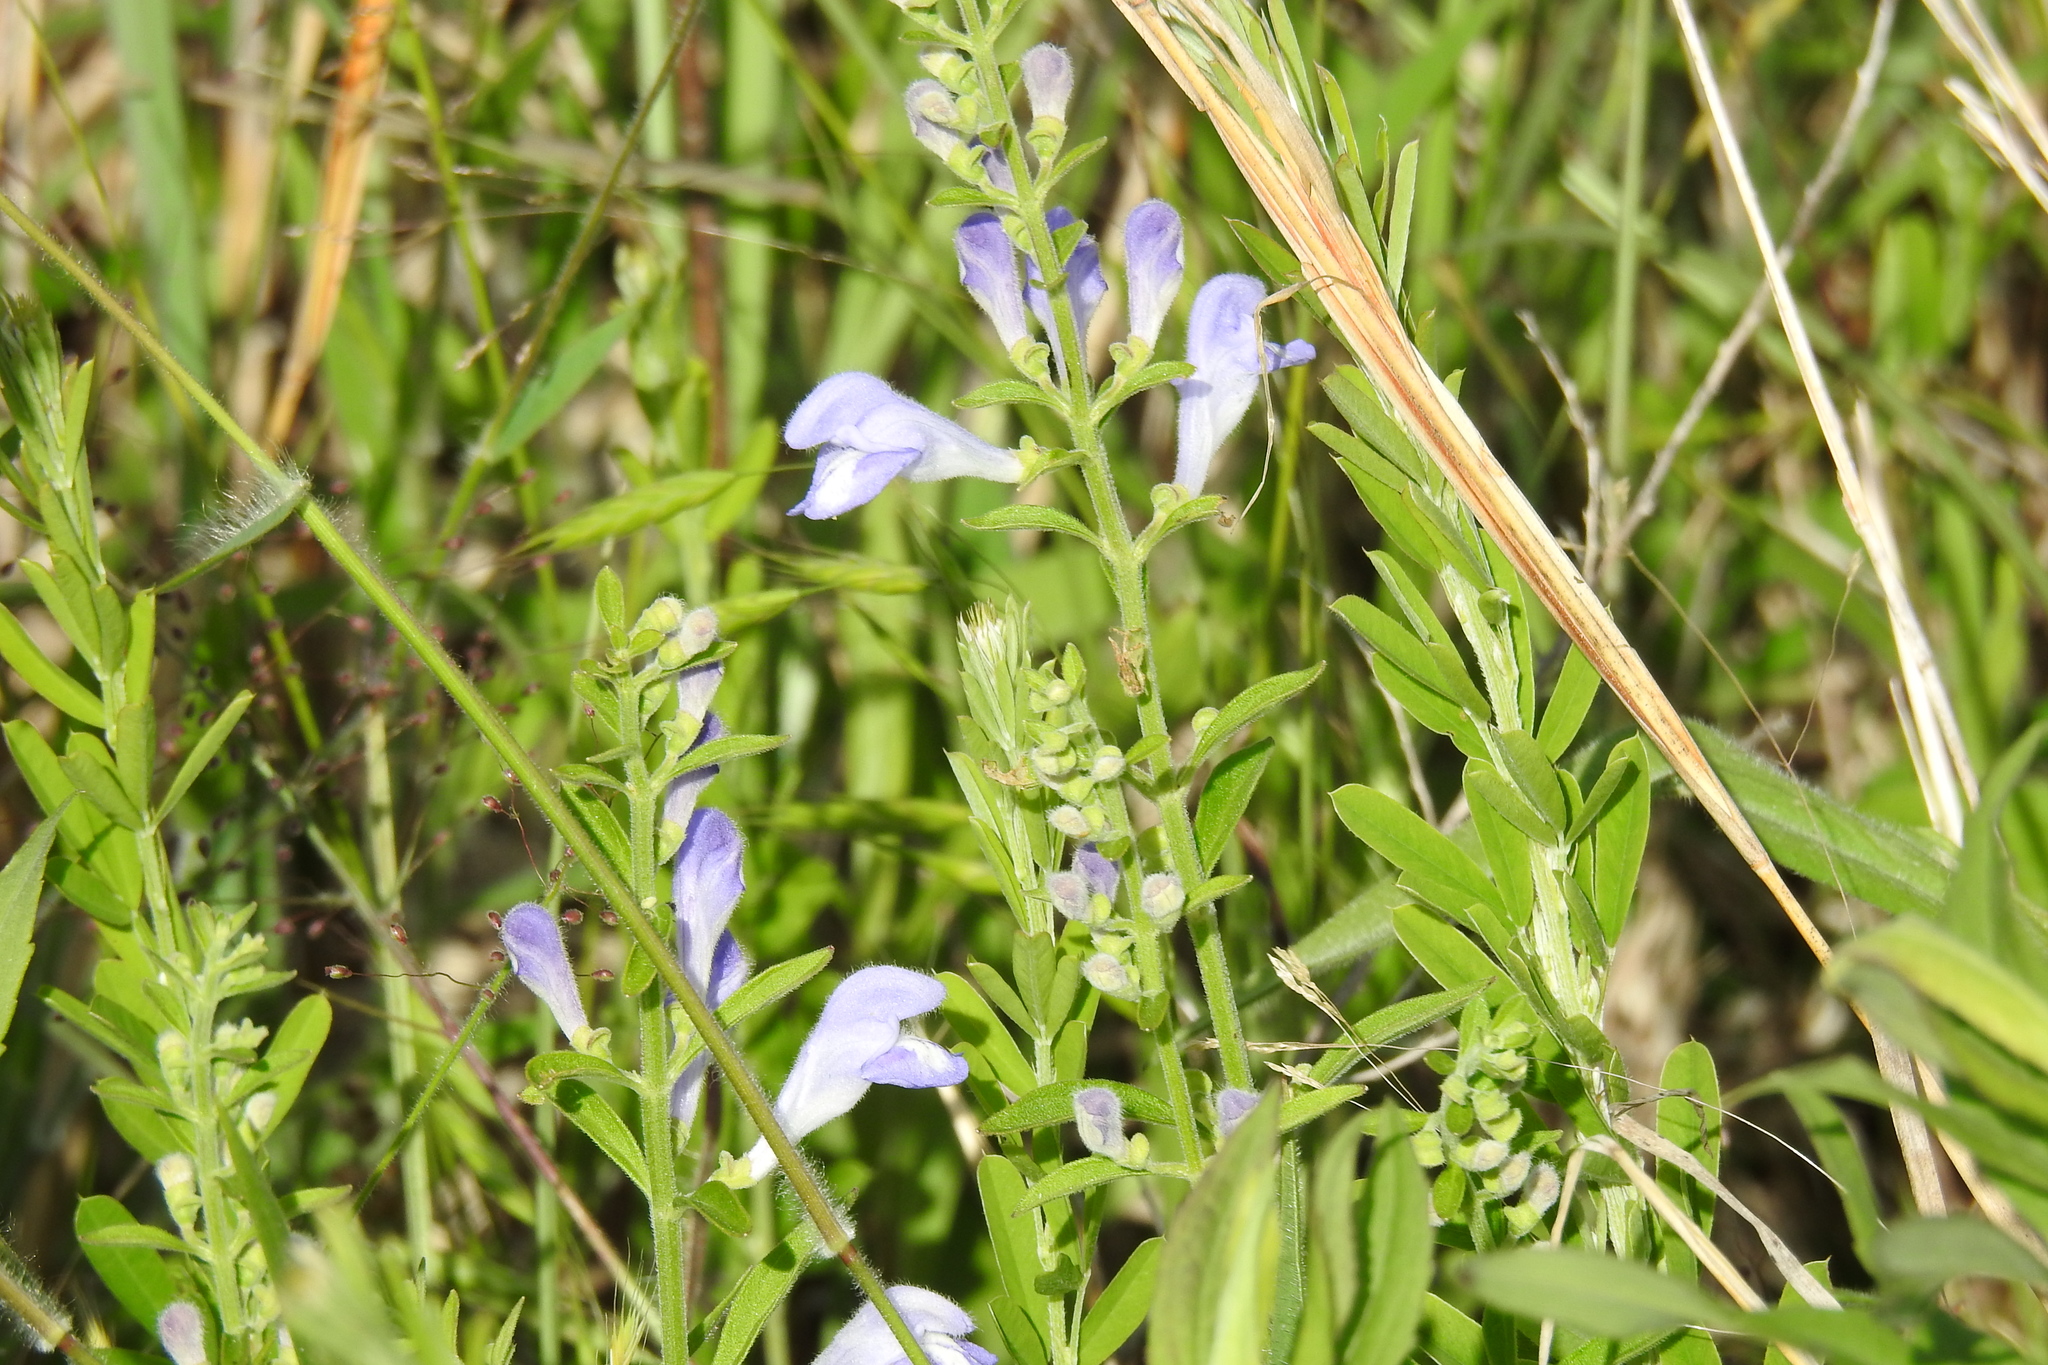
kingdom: Plantae
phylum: Tracheophyta
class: Magnoliopsida
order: Lamiales
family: Lamiaceae
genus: Scutellaria
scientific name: Scutellaria integrifolia
